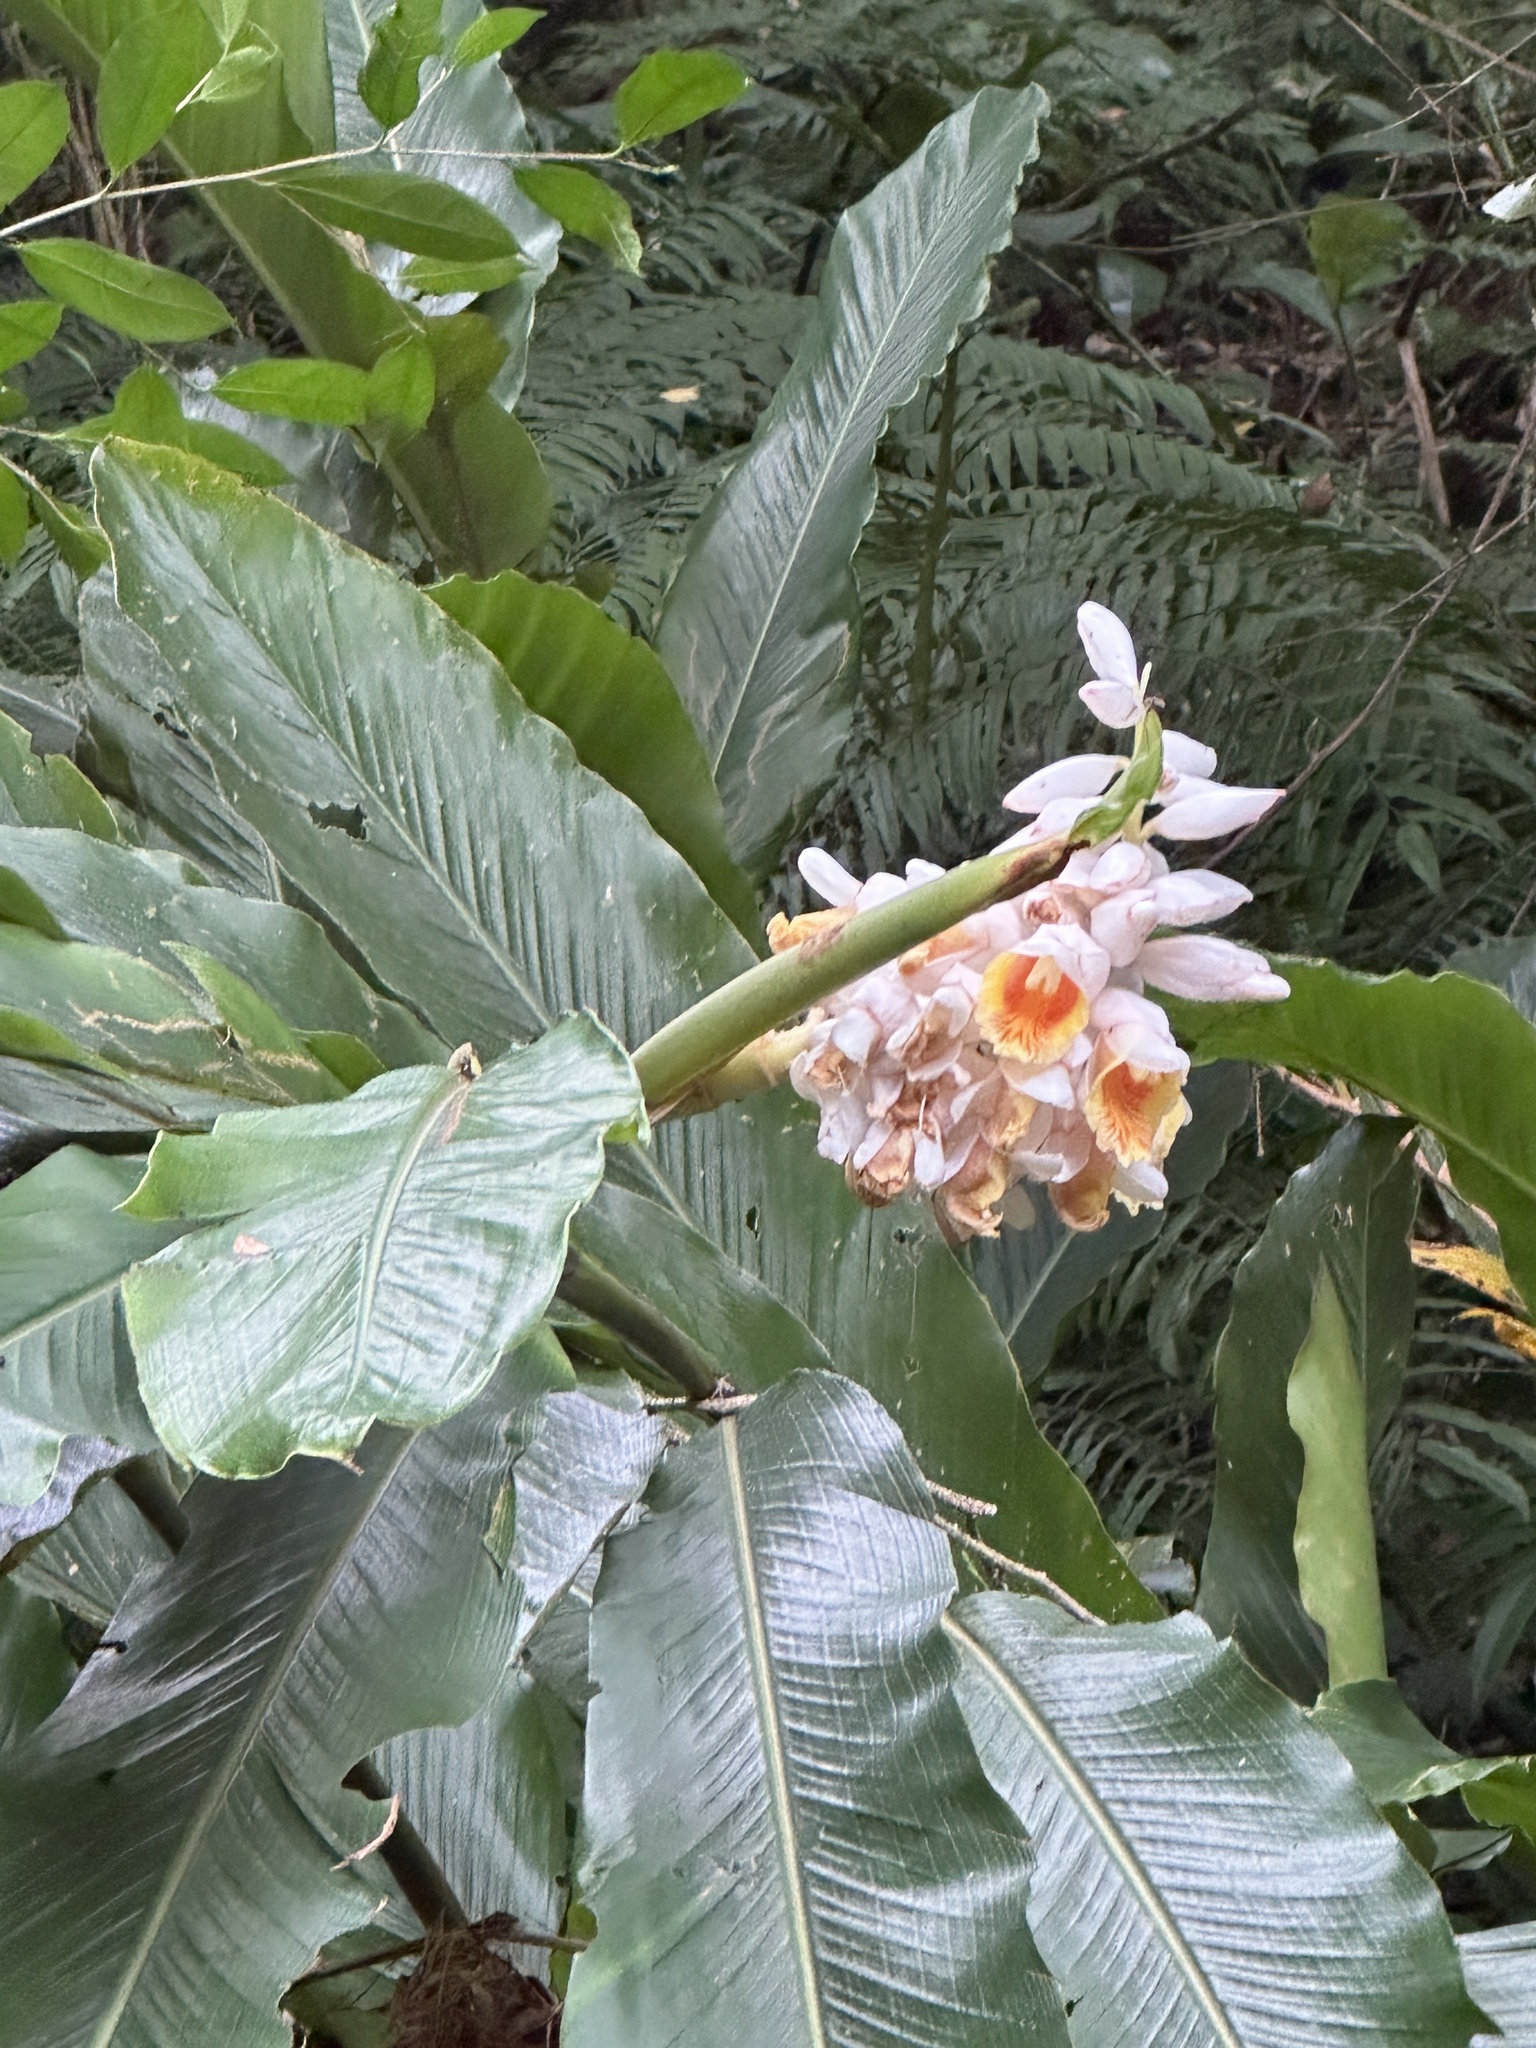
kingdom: Plantae
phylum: Tracheophyta
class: Liliopsida
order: Zingiberales
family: Zingiberaceae
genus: Alpinia
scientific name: Alpinia uraiensis
